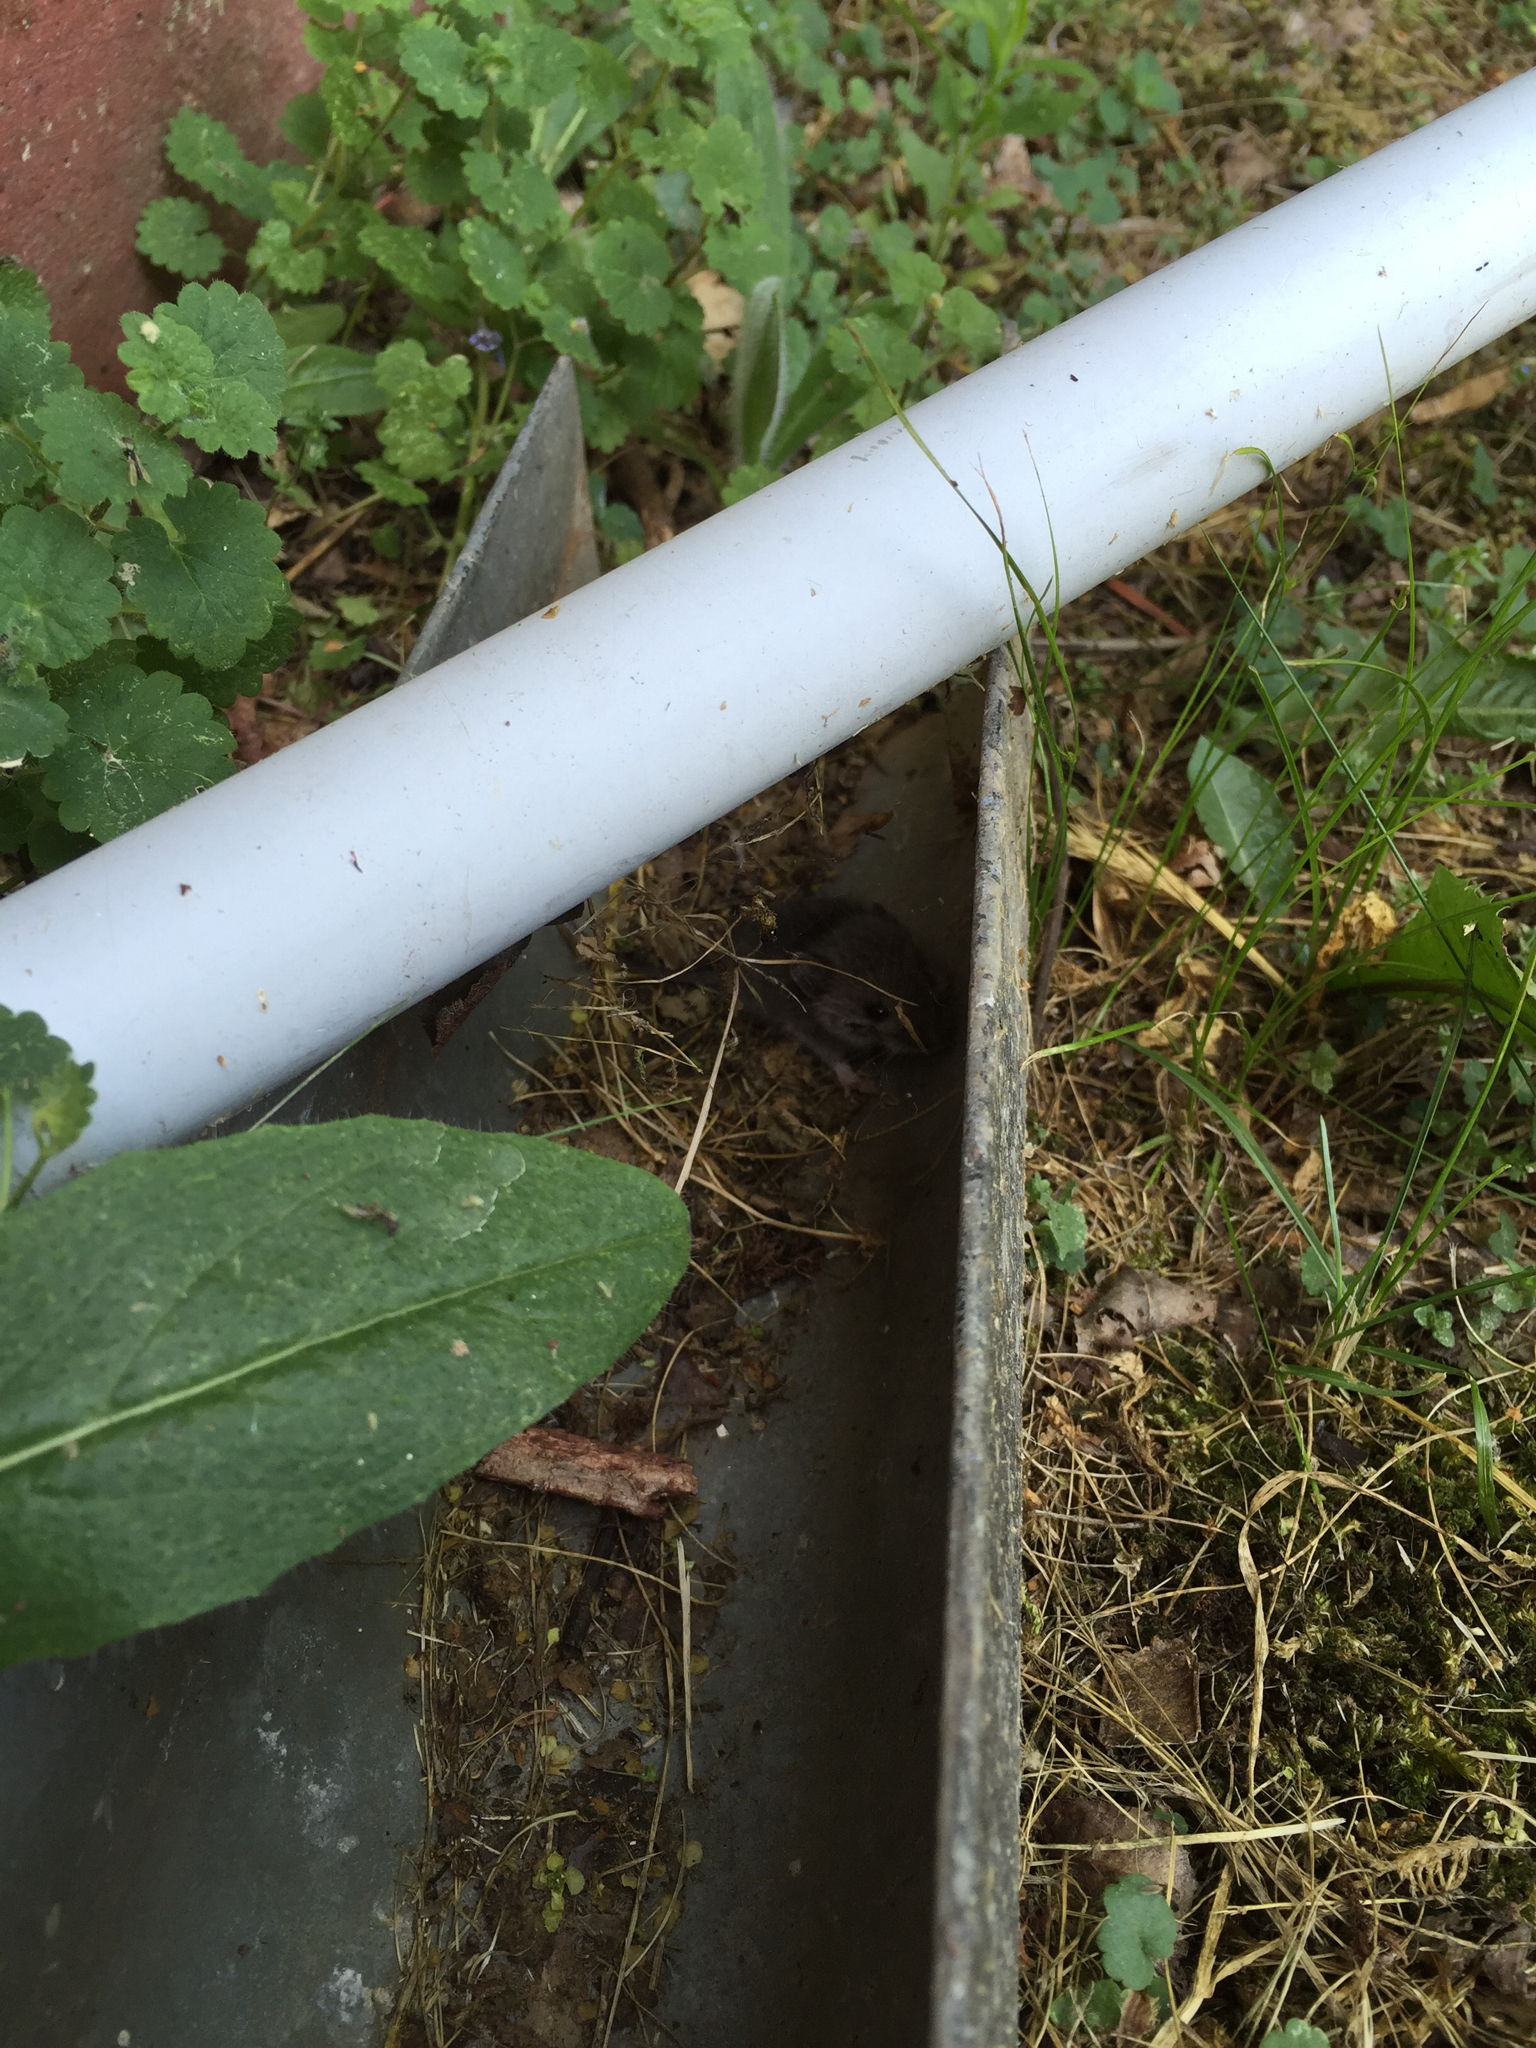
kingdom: Animalia
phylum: Chordata
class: Mammalia
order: Rodentia
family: Dipodidae
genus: Zapus
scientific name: Zapus hudsonius
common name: Meadow jumping mouse
